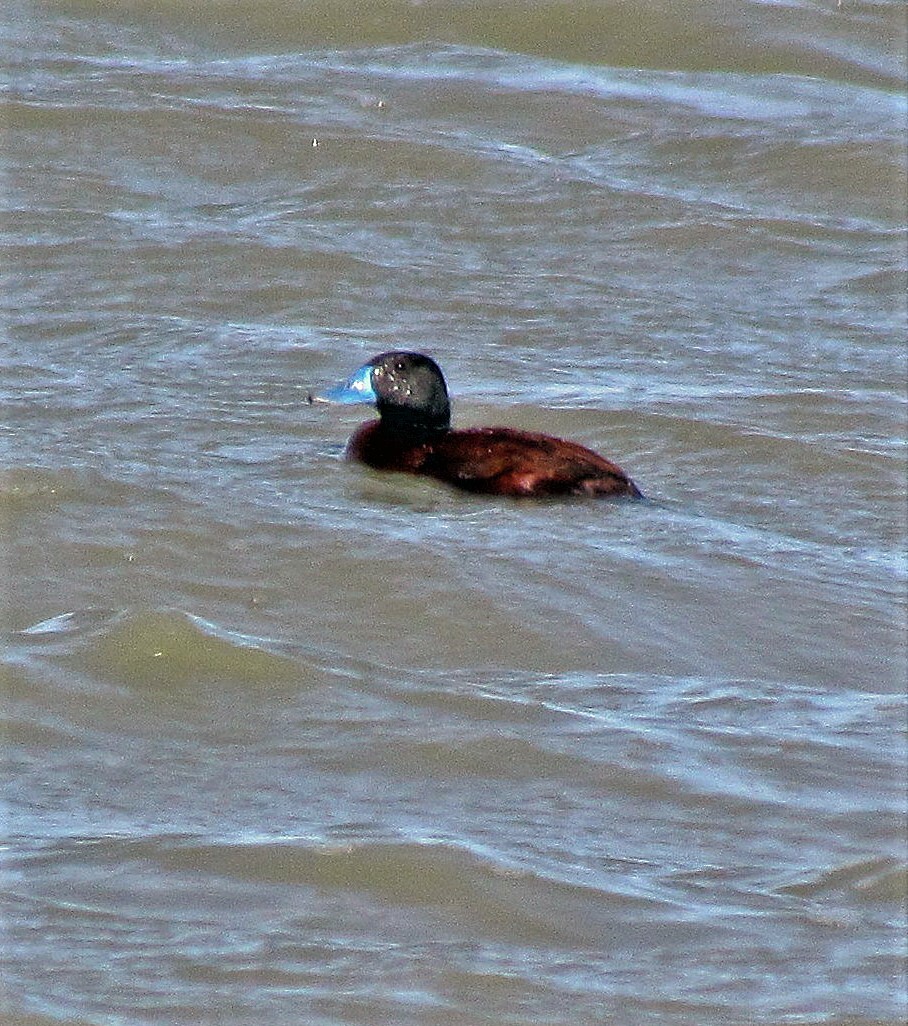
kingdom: Animalia
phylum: Chordata
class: Aves
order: Anseriformes
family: Anatidae
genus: Oxyura
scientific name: Oxyura vittata
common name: Lake duck
